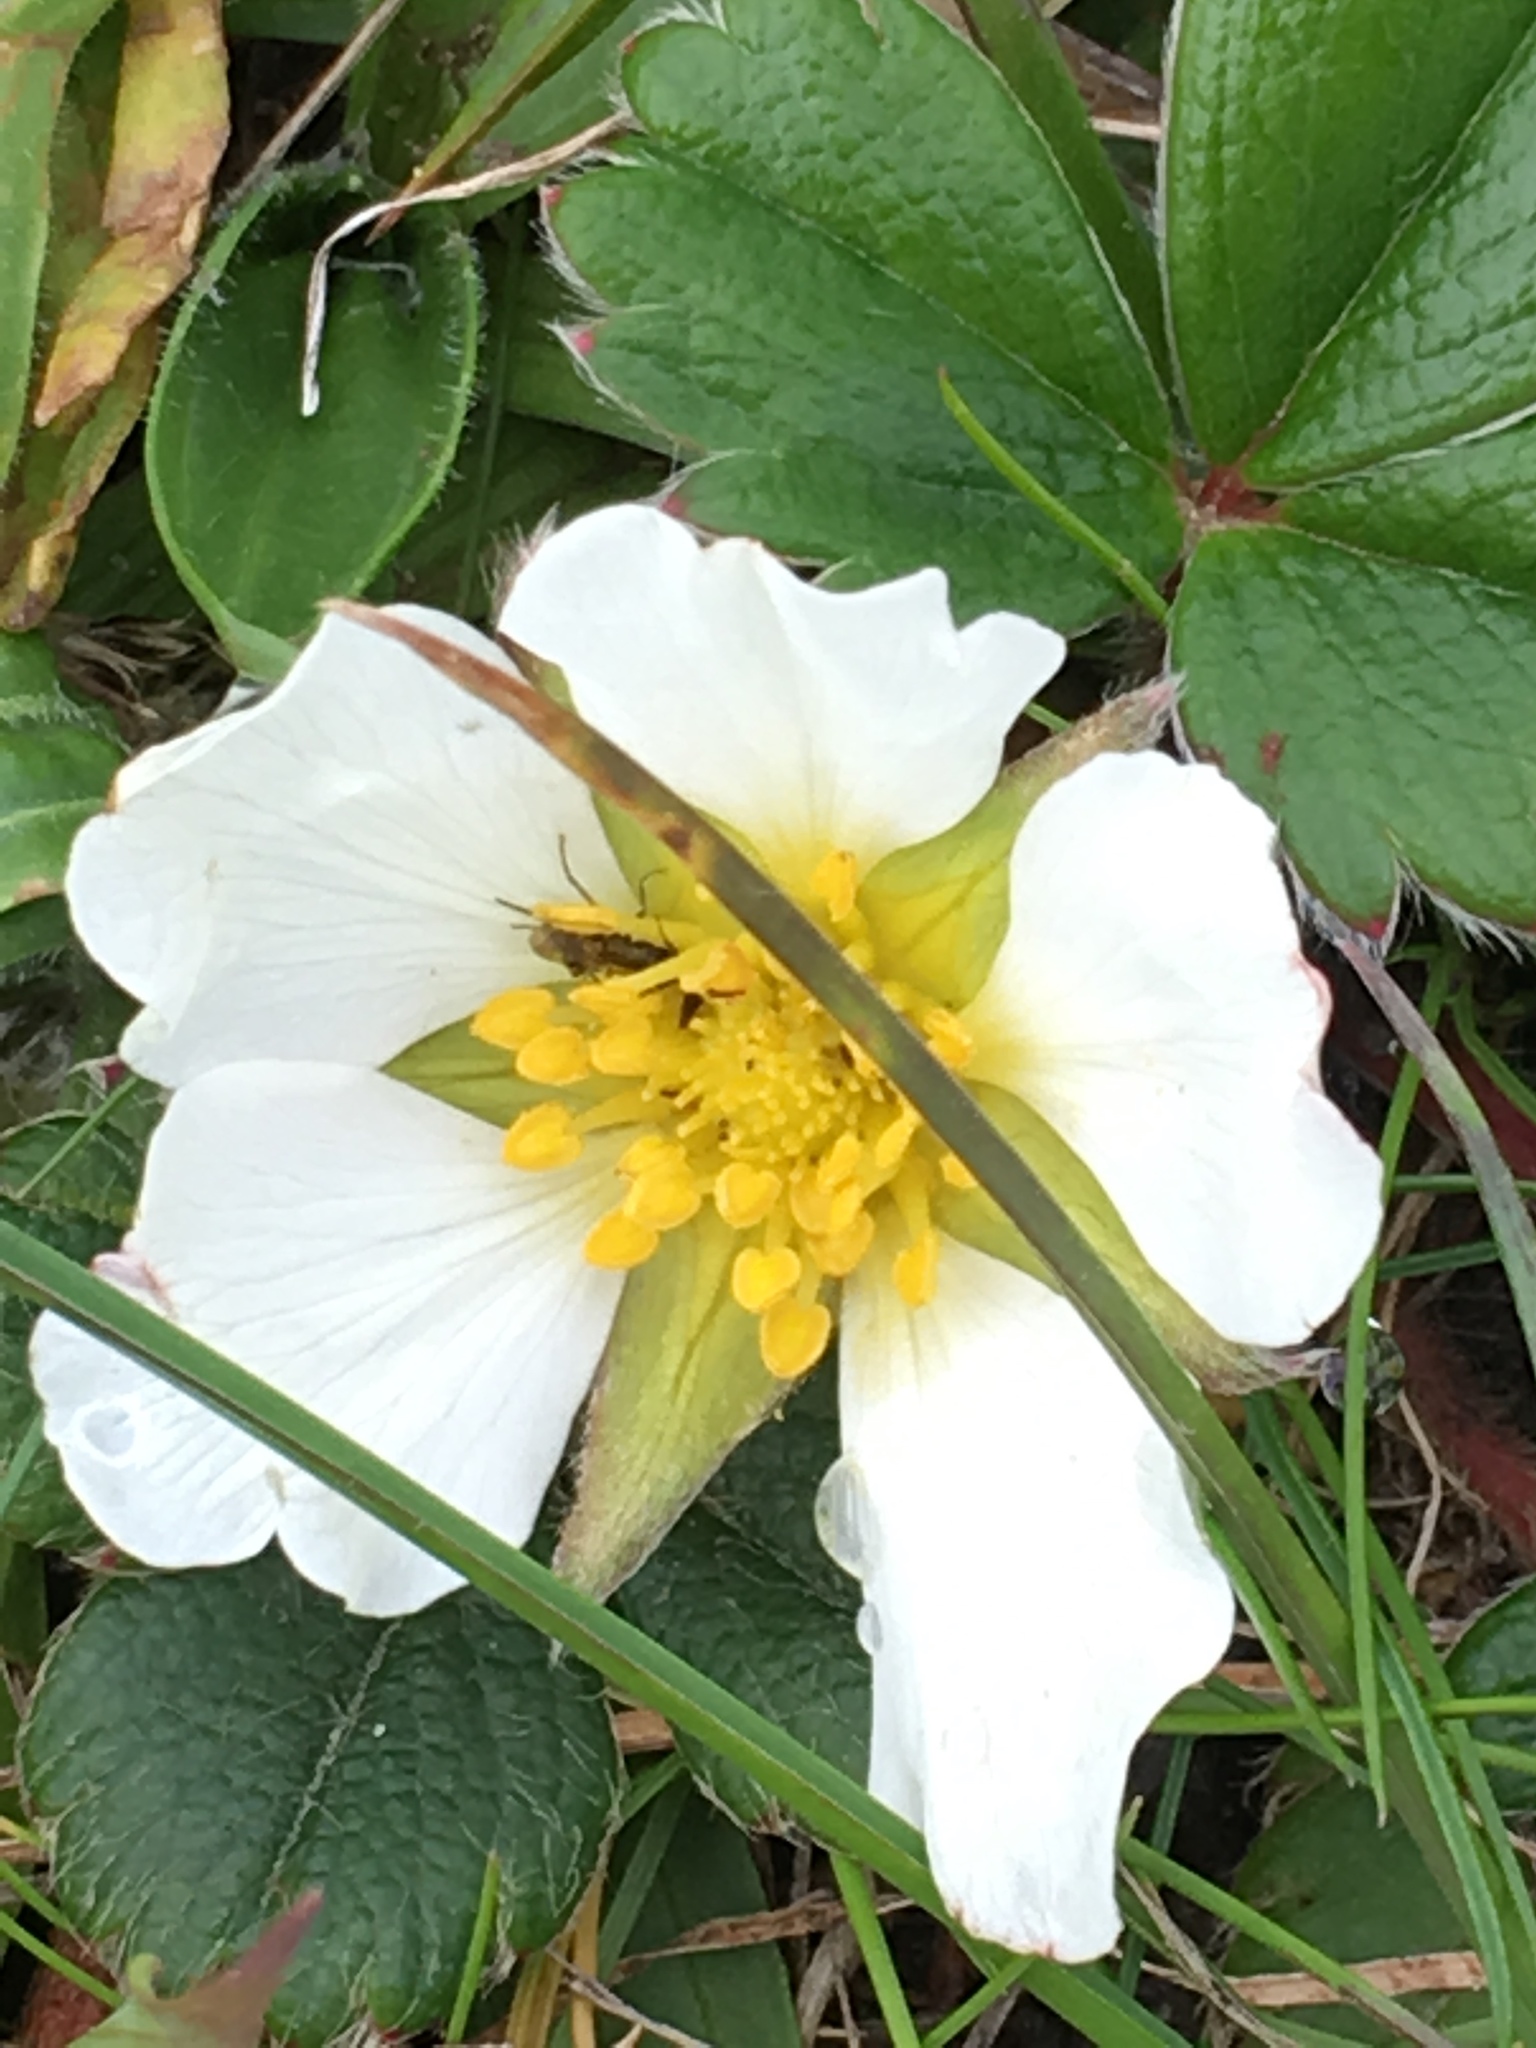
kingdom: Plantae
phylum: Tracheophyta
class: Magnoliopsida
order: Rosales
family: Rosaceae
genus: Fragaria
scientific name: Fragaria chiloensis
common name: Beach strawberry
